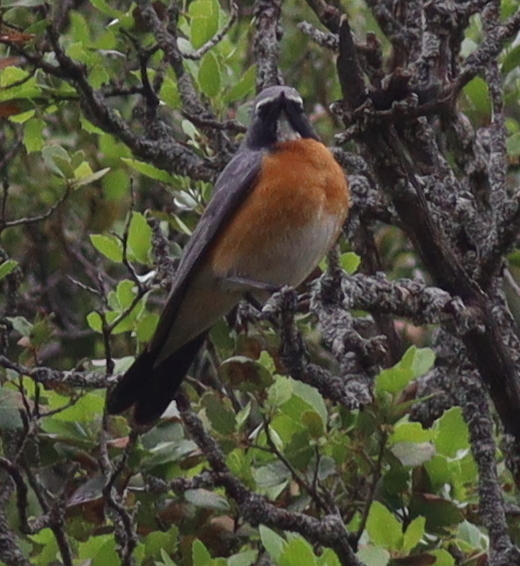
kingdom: Animalia
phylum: Chordata
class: Aves
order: Passeriformes
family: Muscicapidae
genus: Irania
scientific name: Irania gutturalis
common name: White-throated robin
